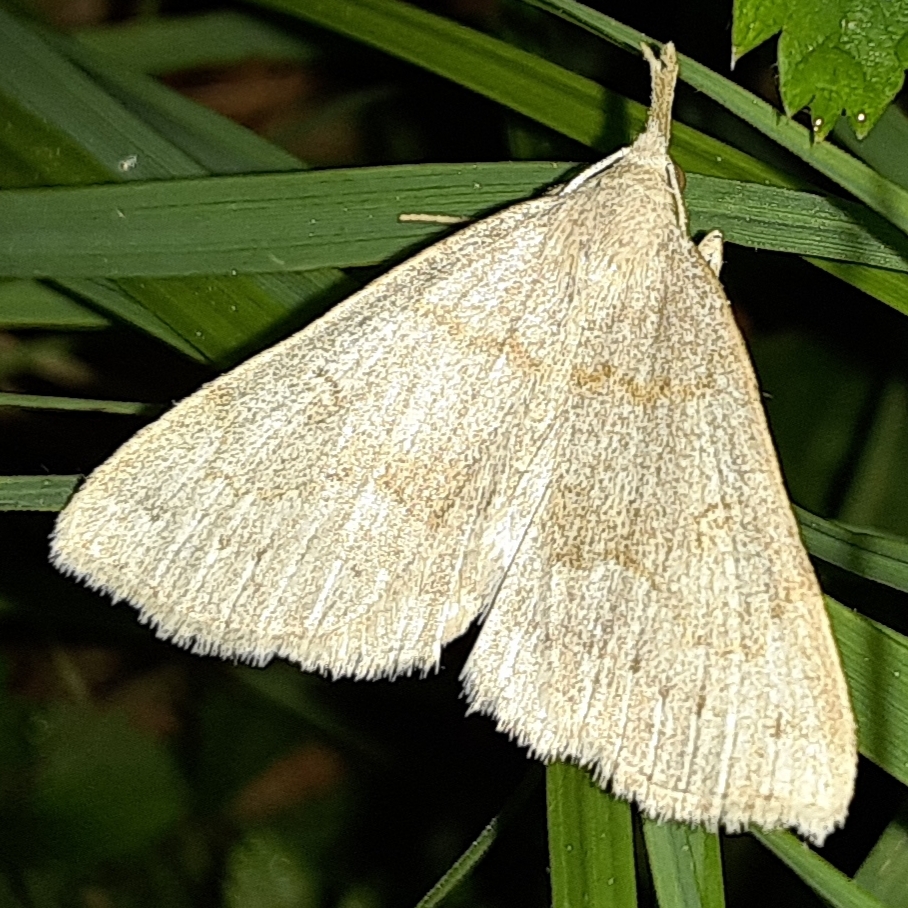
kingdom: Animalia
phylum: Arthropoda
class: Insecta
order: Lepidoptera
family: Erebidae
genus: Macrochilo
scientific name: Macrochilo morbidalis
